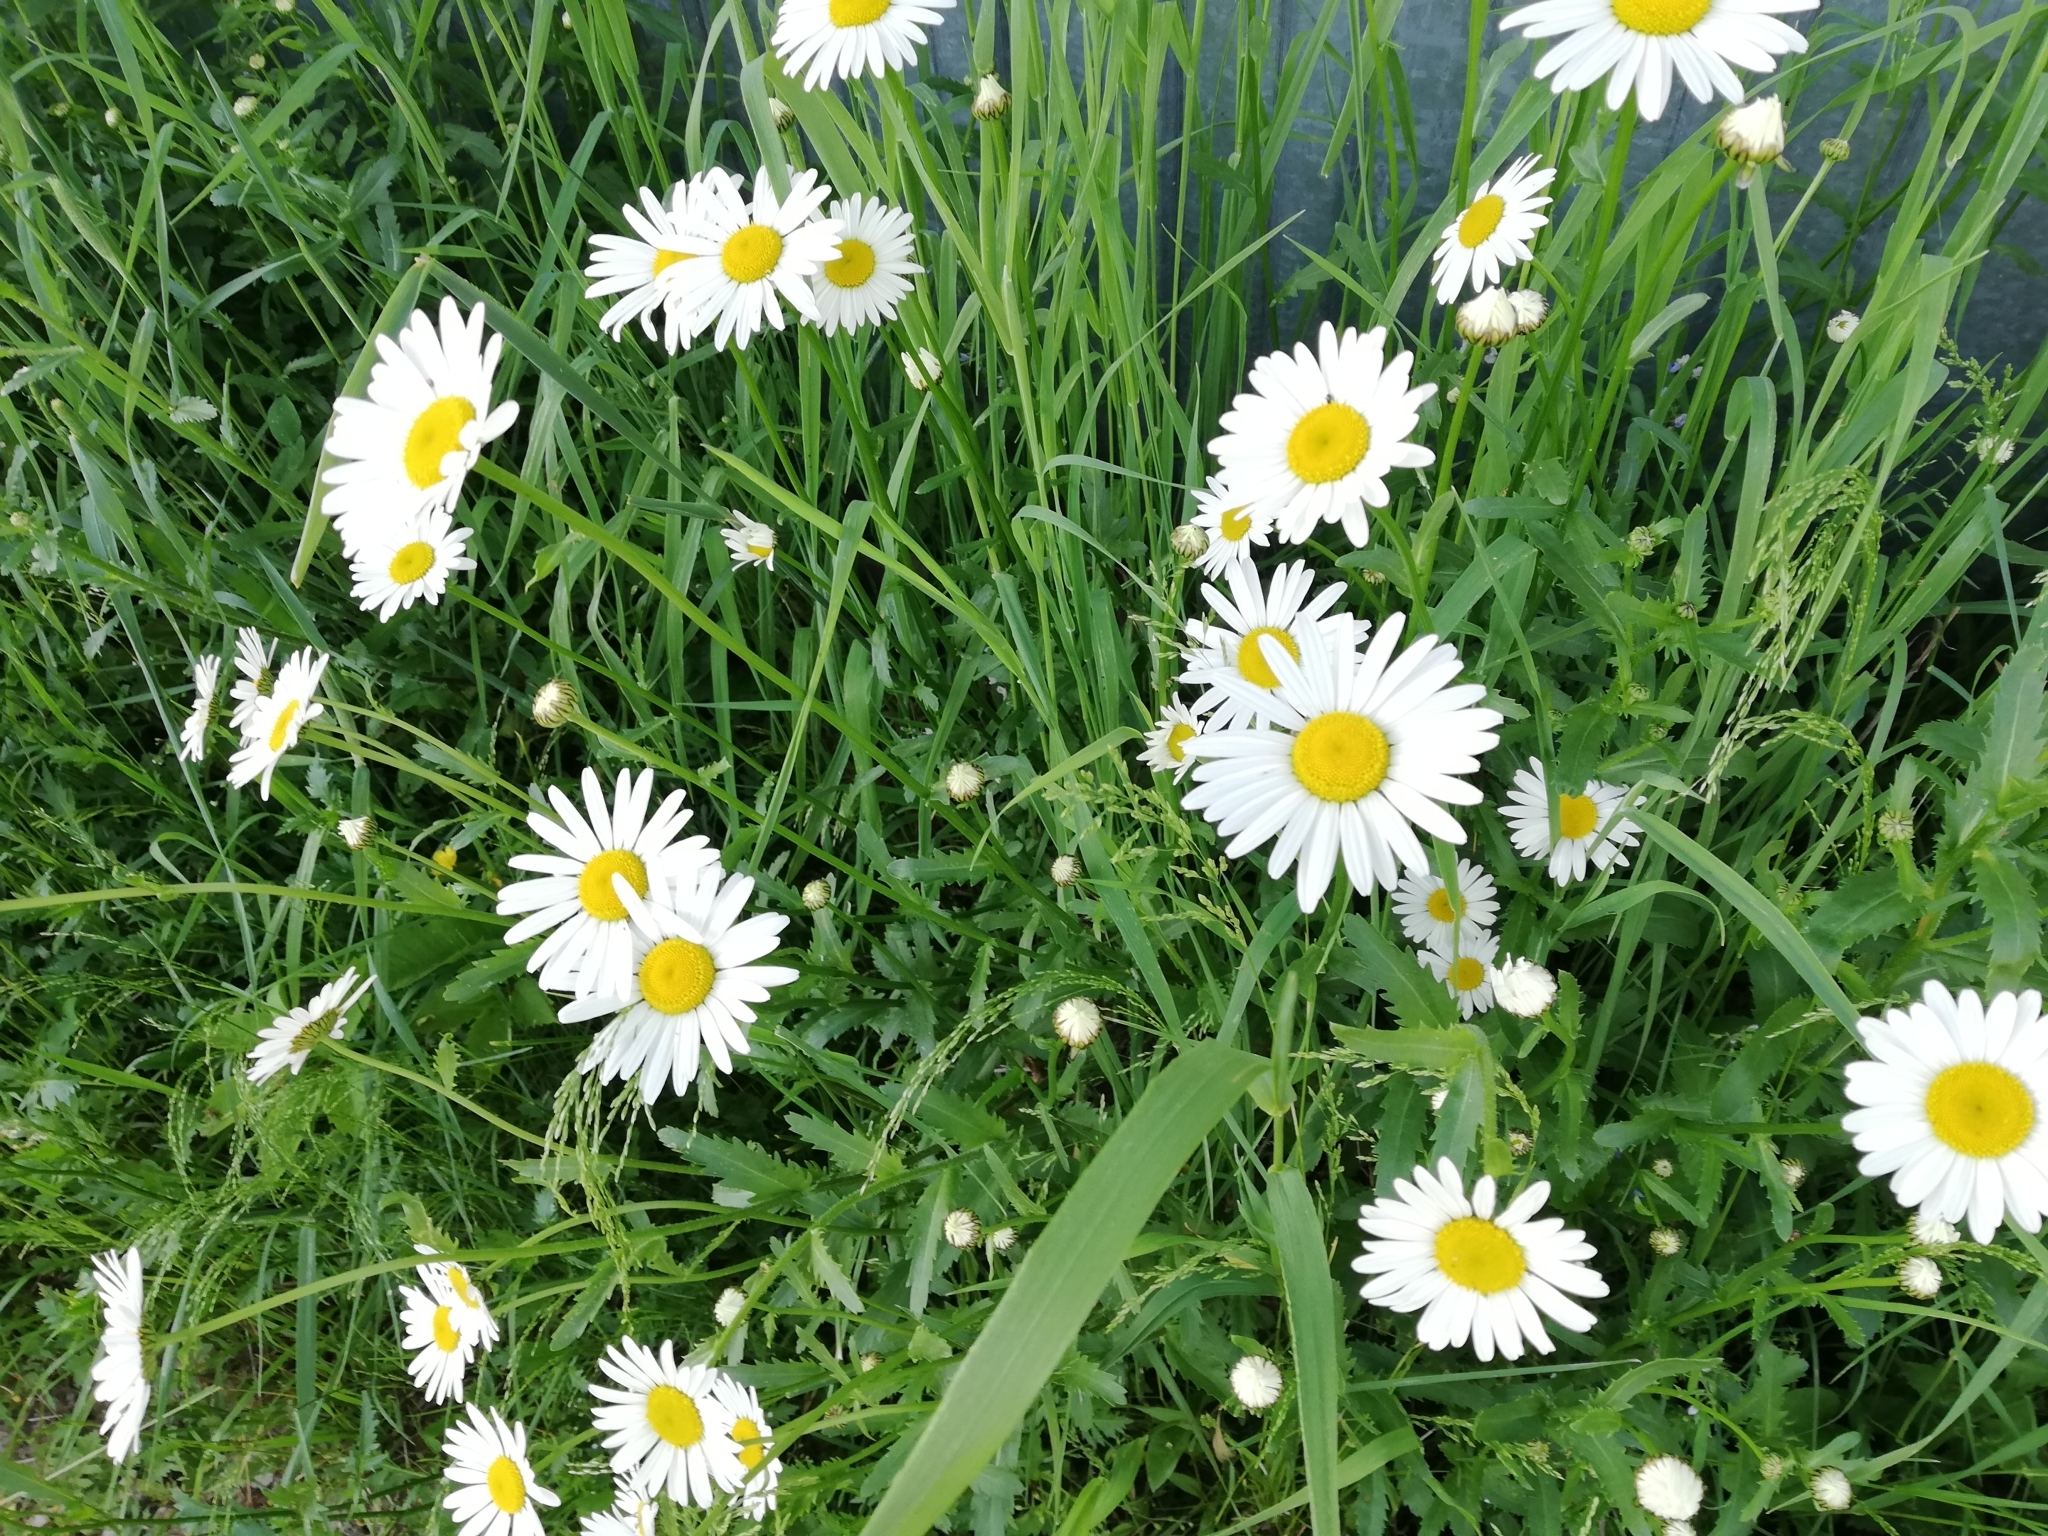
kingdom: Plantae
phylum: Tracheophyta
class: Magnoliopsida
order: Asterales
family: Asteraceae
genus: Leucanthemum
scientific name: Leucanthemum vulgare
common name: Oxeye daisy
